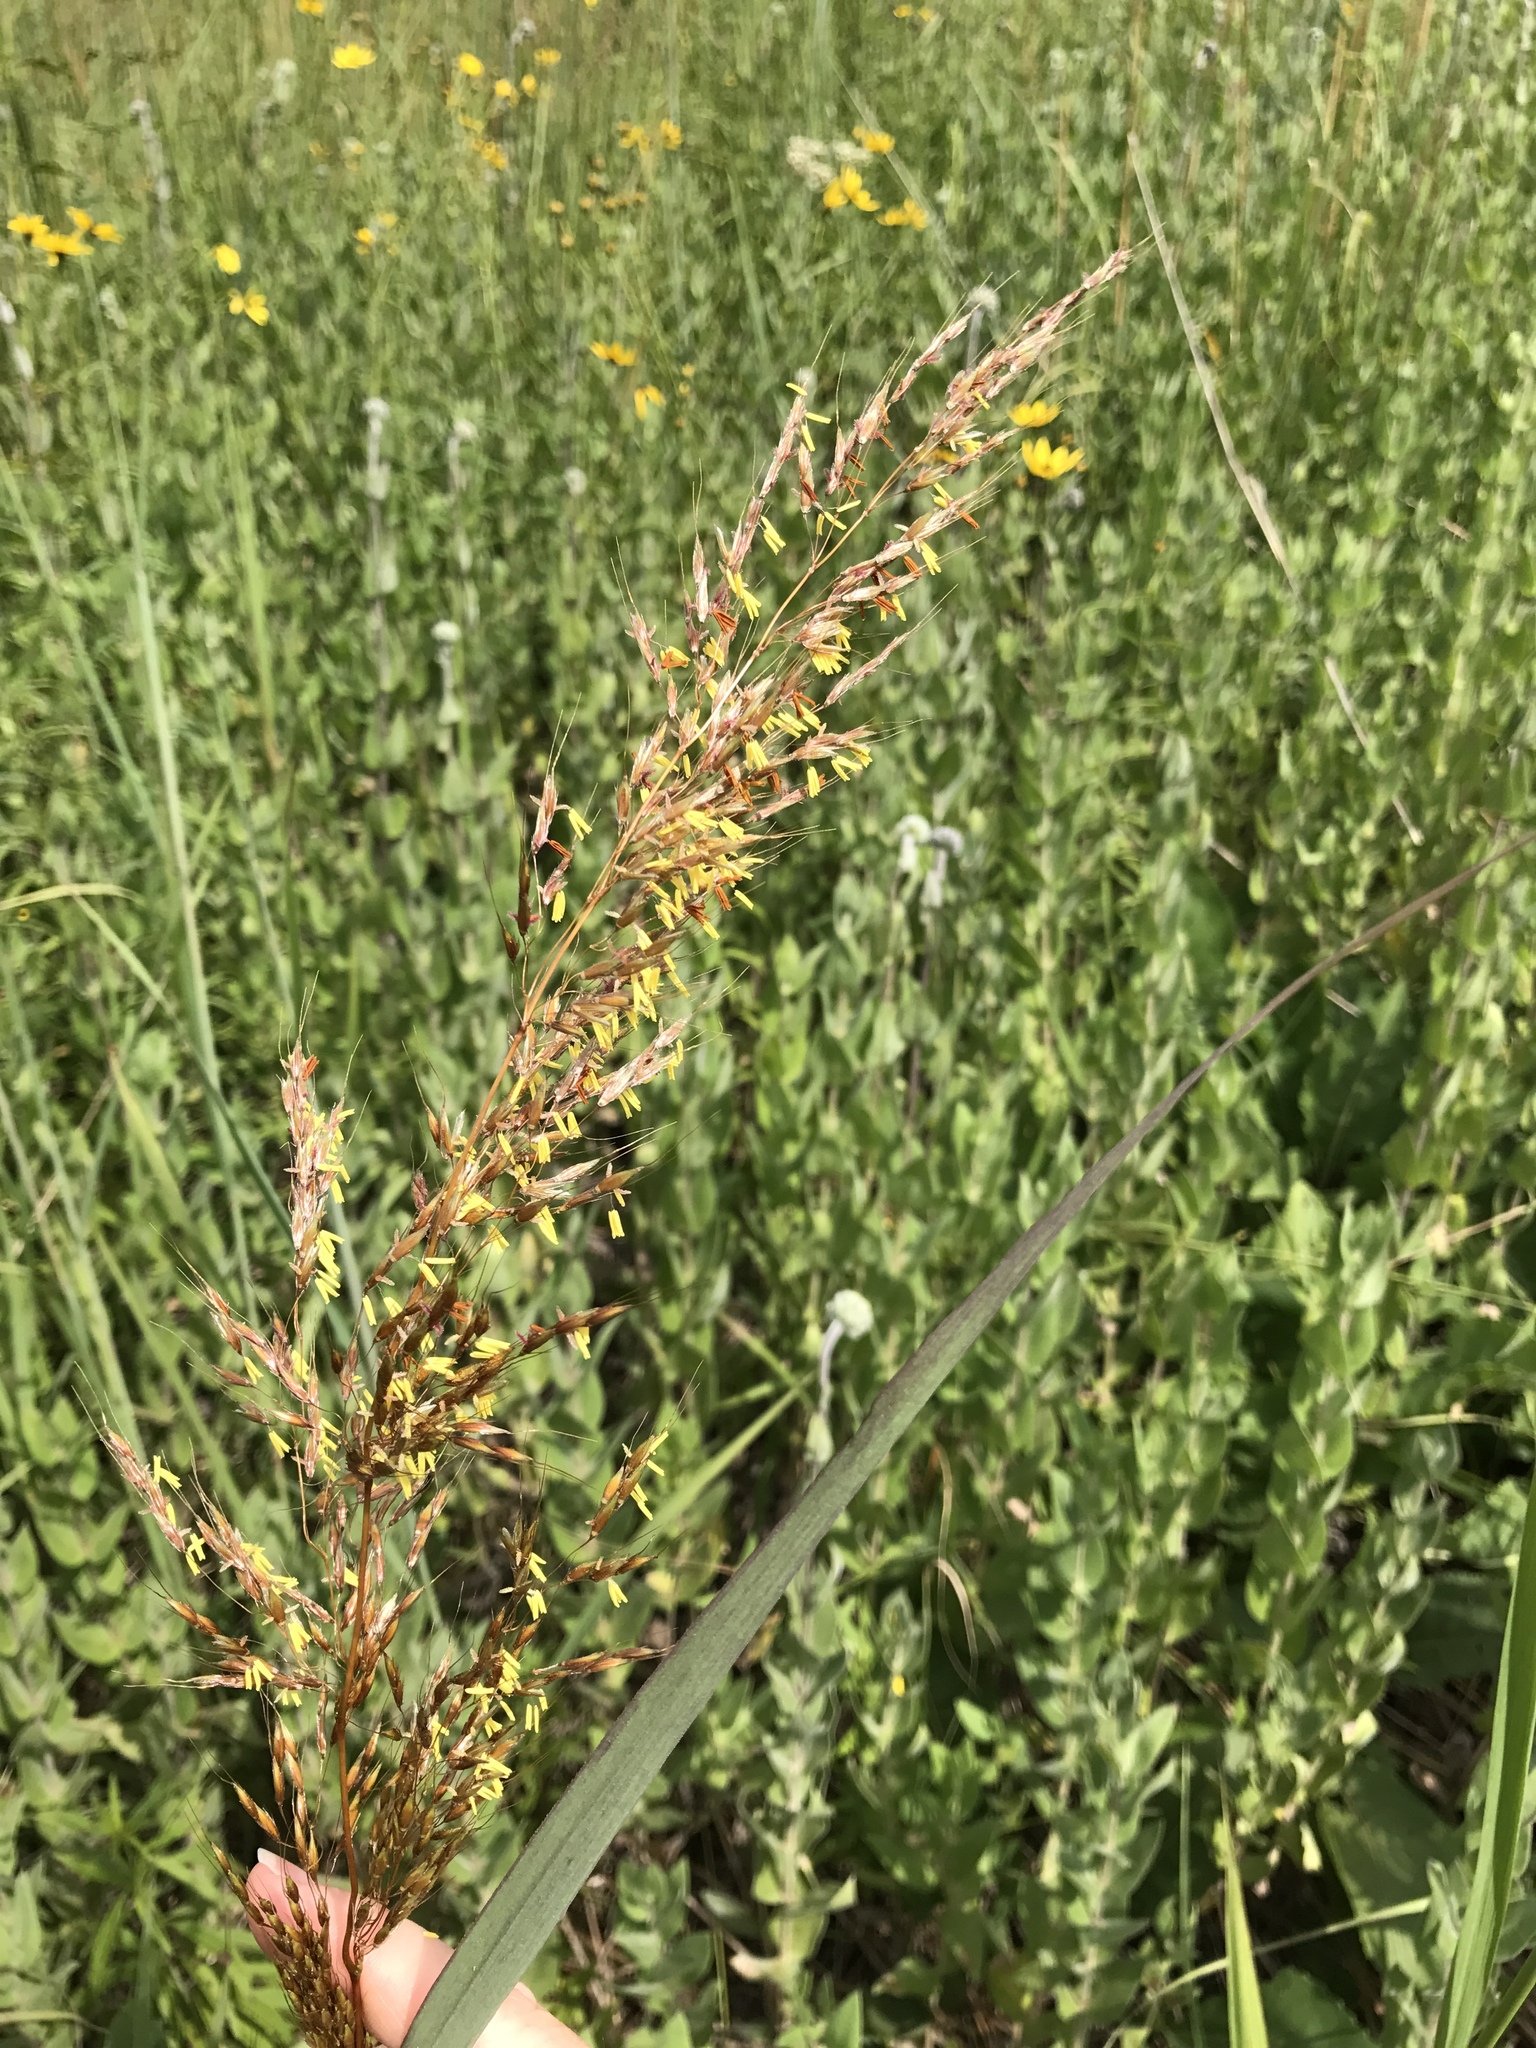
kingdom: Plantae
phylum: Tracheophyta
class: Liliopsida
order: Poales
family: Poaceae
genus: Sorghastrum
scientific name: Sorghastrum nutans
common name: Indian grass
